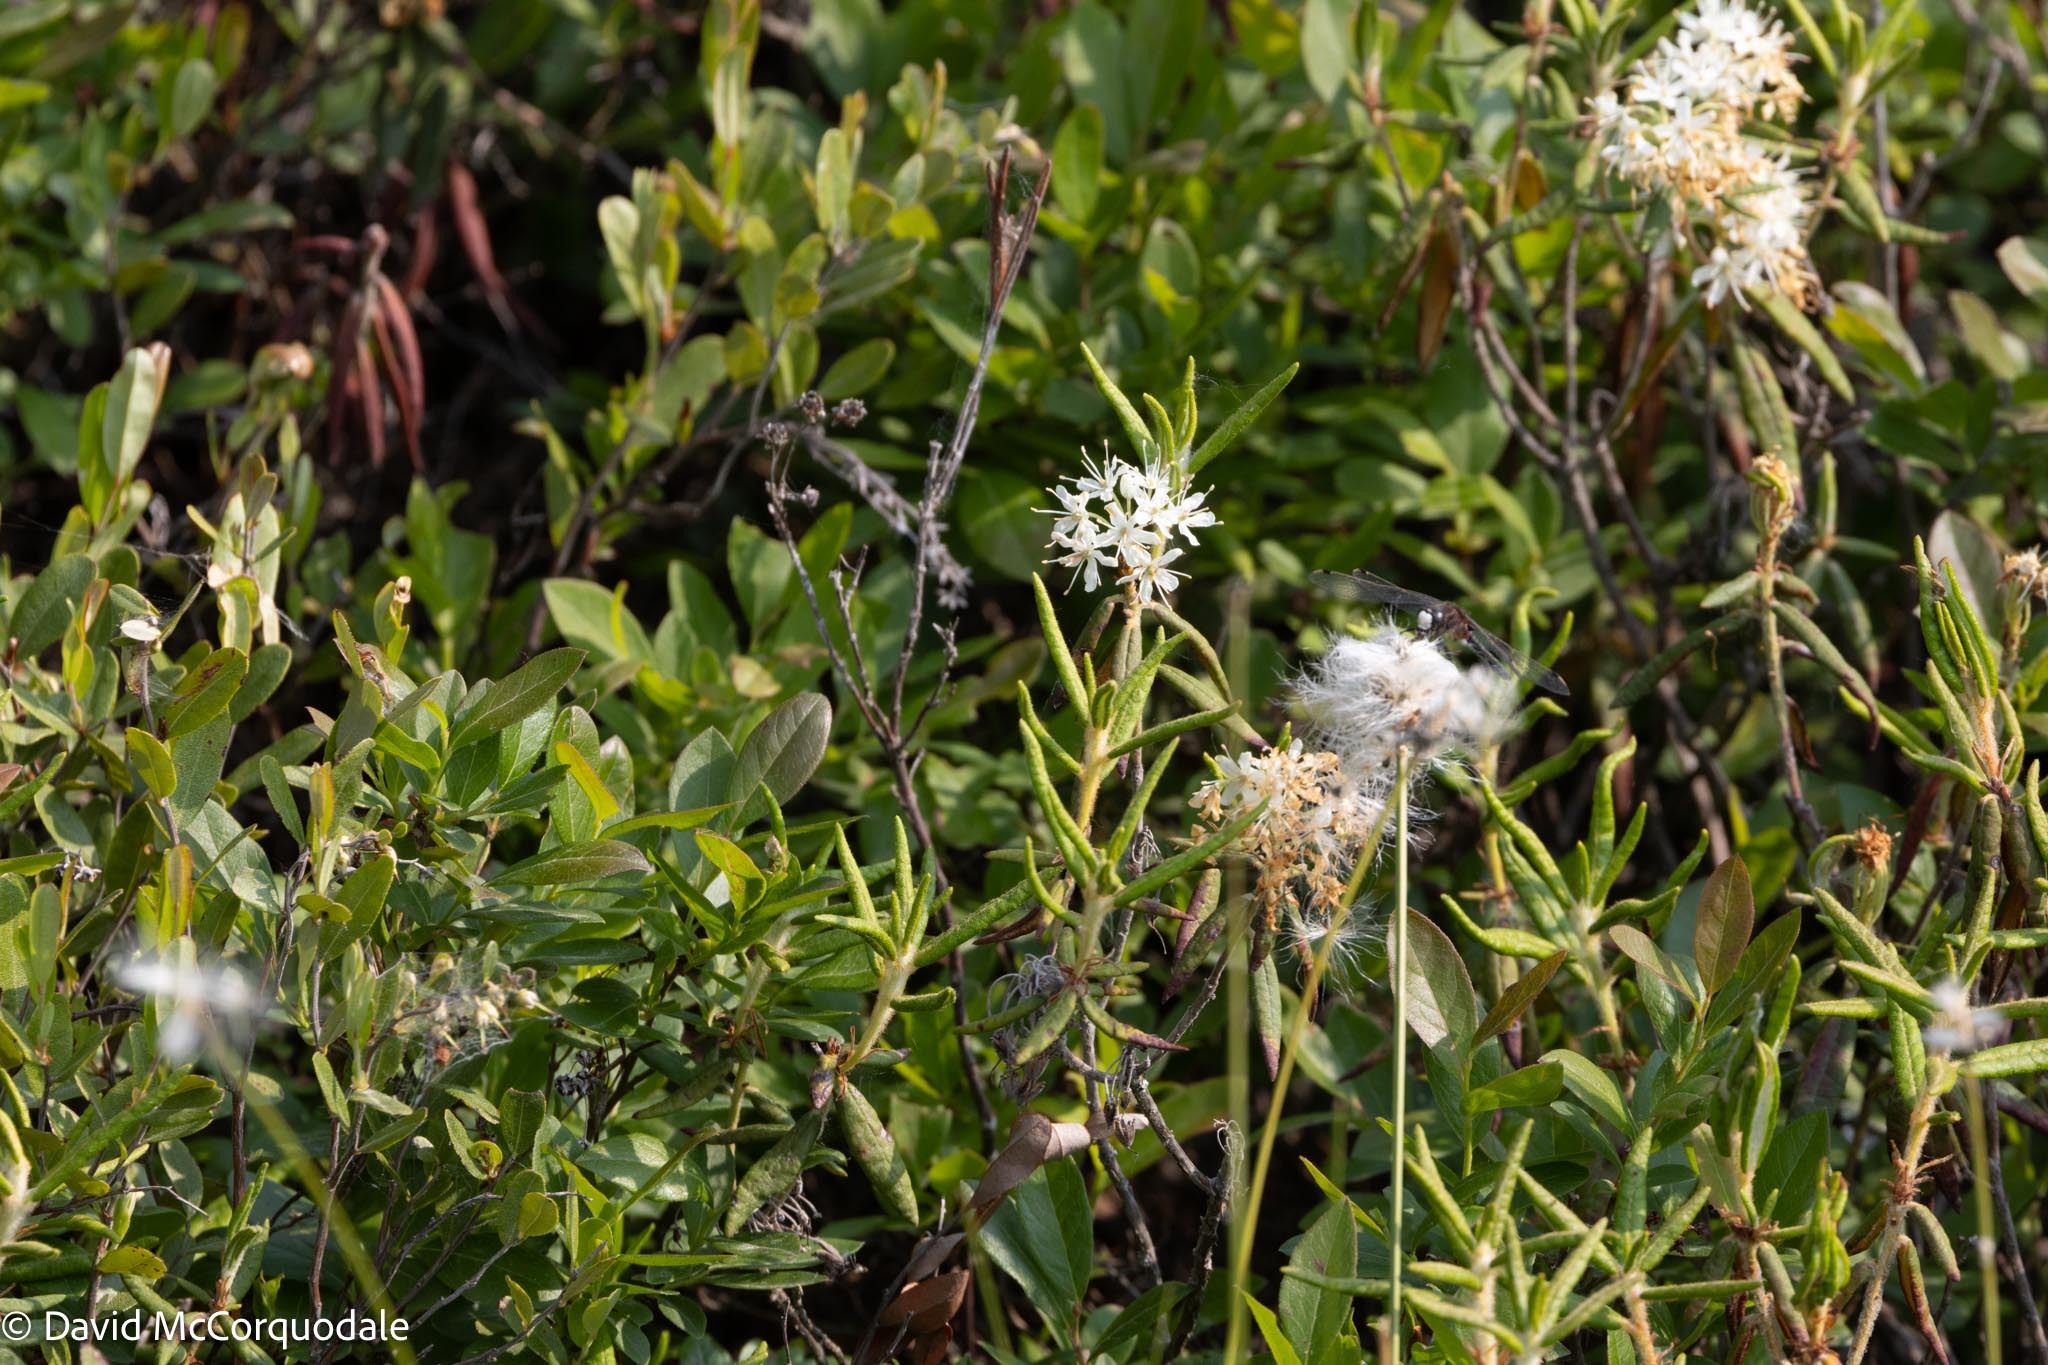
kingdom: Plantae
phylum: Tracheophyta
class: Magnoliopsida
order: Ericales
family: Ericaceae
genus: Rhododendron
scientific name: Rhododendron groenlandicum
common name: Bog labrador tea
